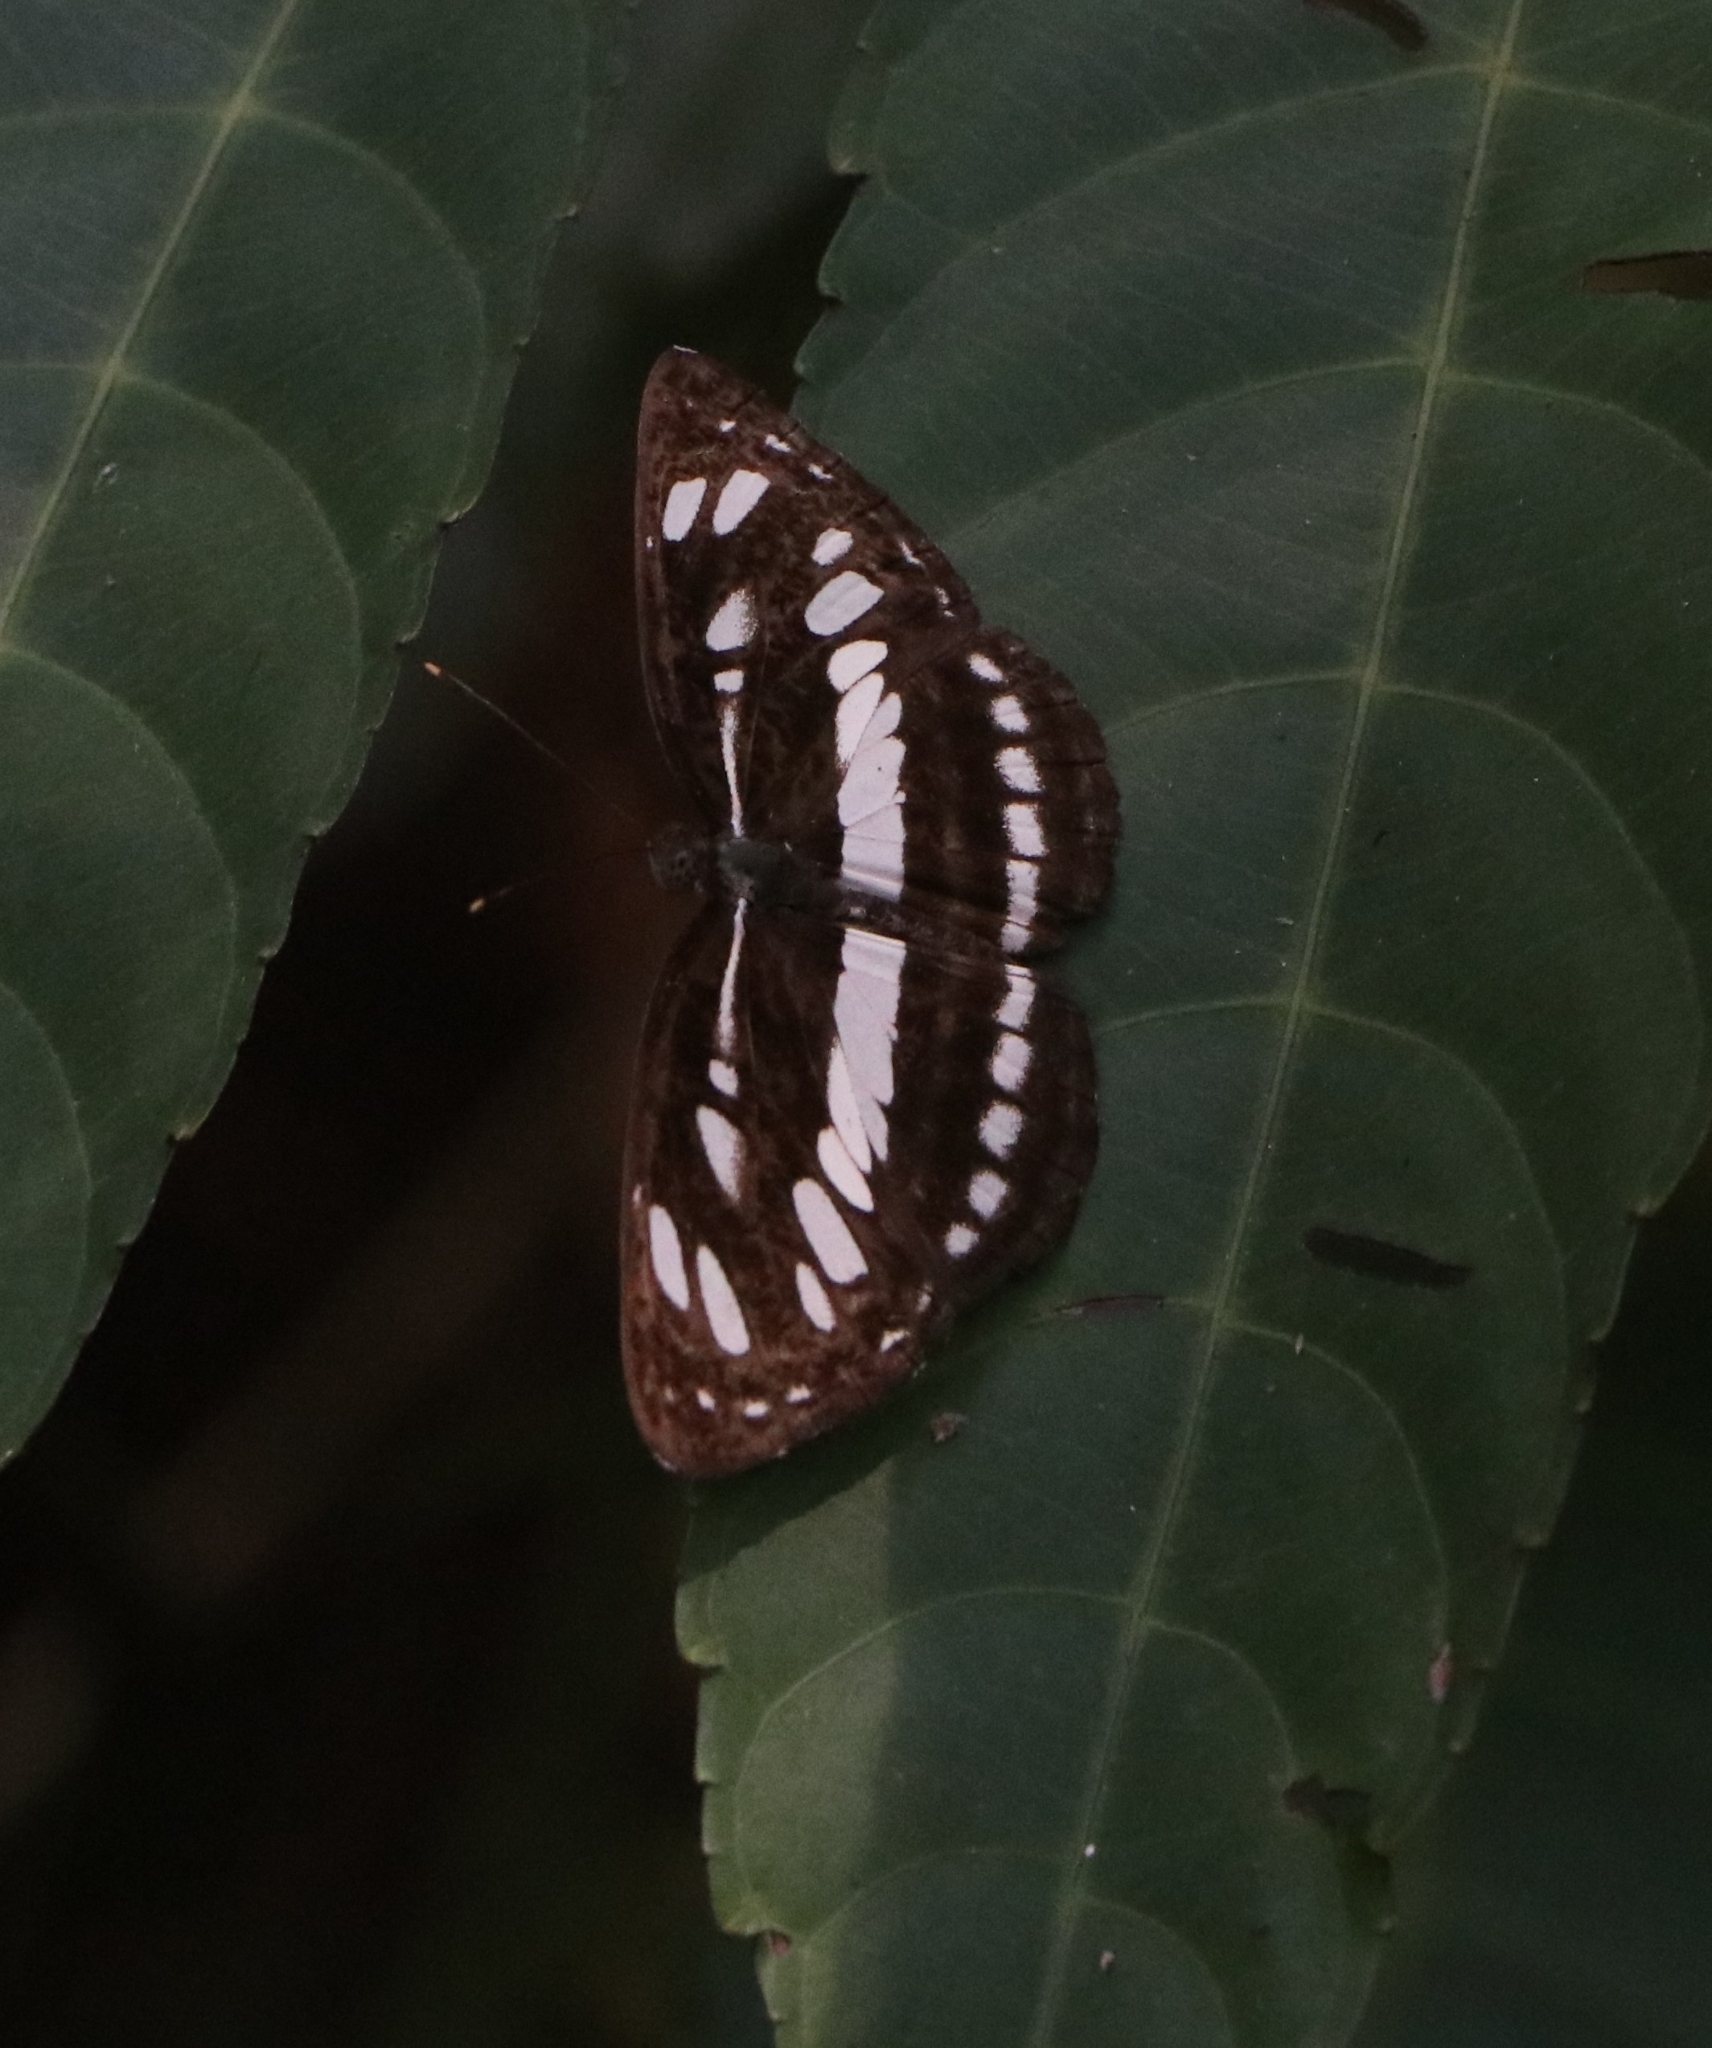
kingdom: Animalia
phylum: Arthropoda
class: Insecta
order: Lepidoptera
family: Nymphalidae
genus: Neptis
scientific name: Neptis hylas
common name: Common sailer
